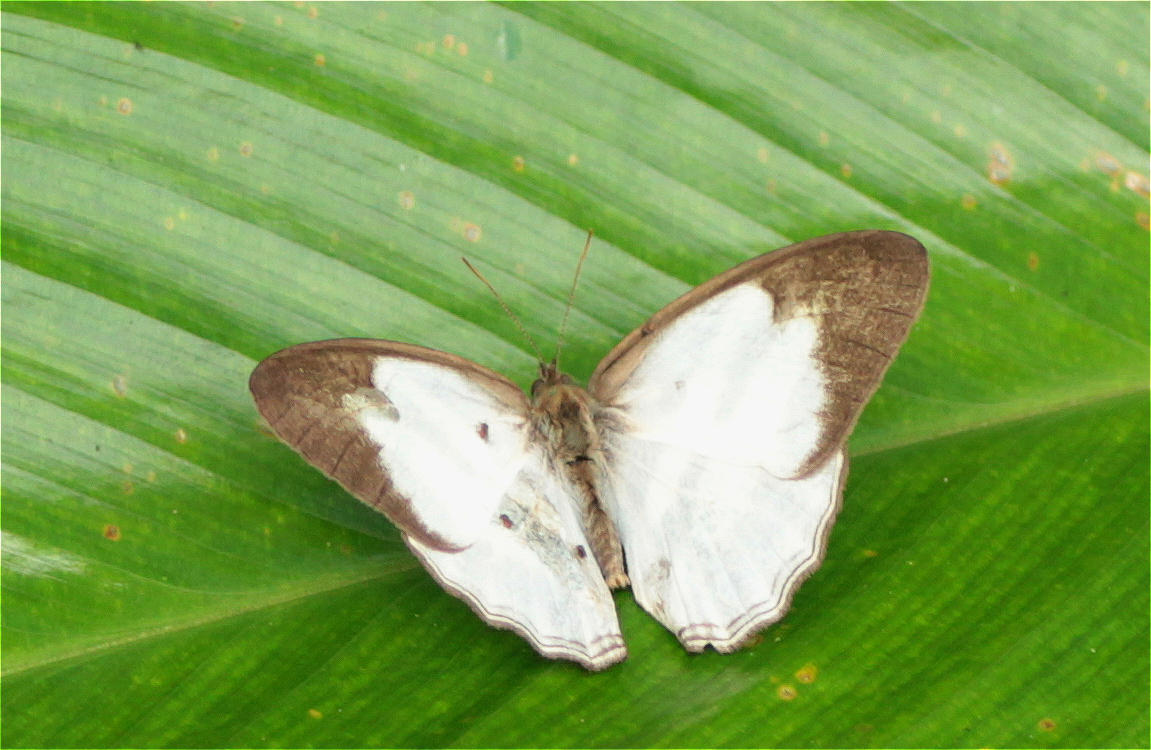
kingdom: Animalia
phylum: Arthropoda
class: Insecta
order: Lepidoptera
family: Nymphalidae
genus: Pareuptychia
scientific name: Pareuptychia hesione
